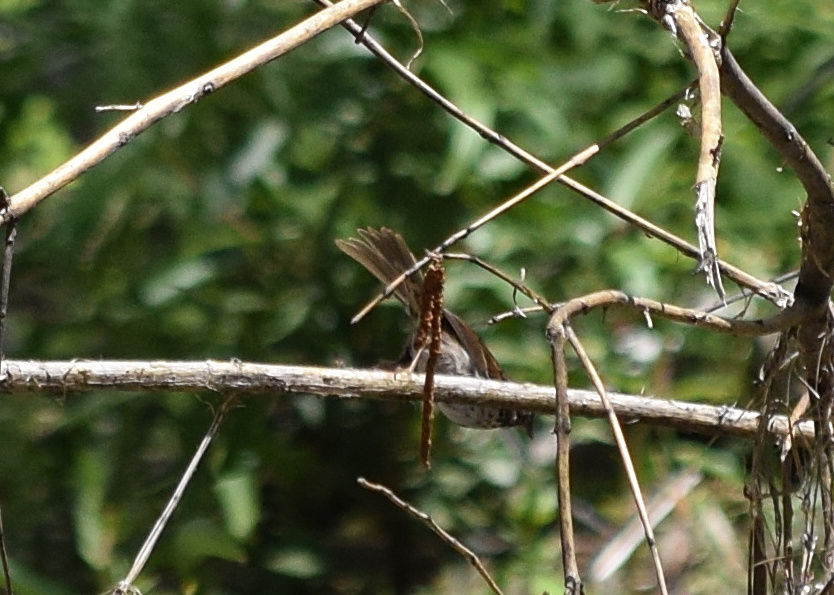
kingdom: Animalia
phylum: Chordata
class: Aves
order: Passeriformes
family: Passerellidae
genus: Melospiza
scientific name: Melospiza melodia
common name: Song sparrow
